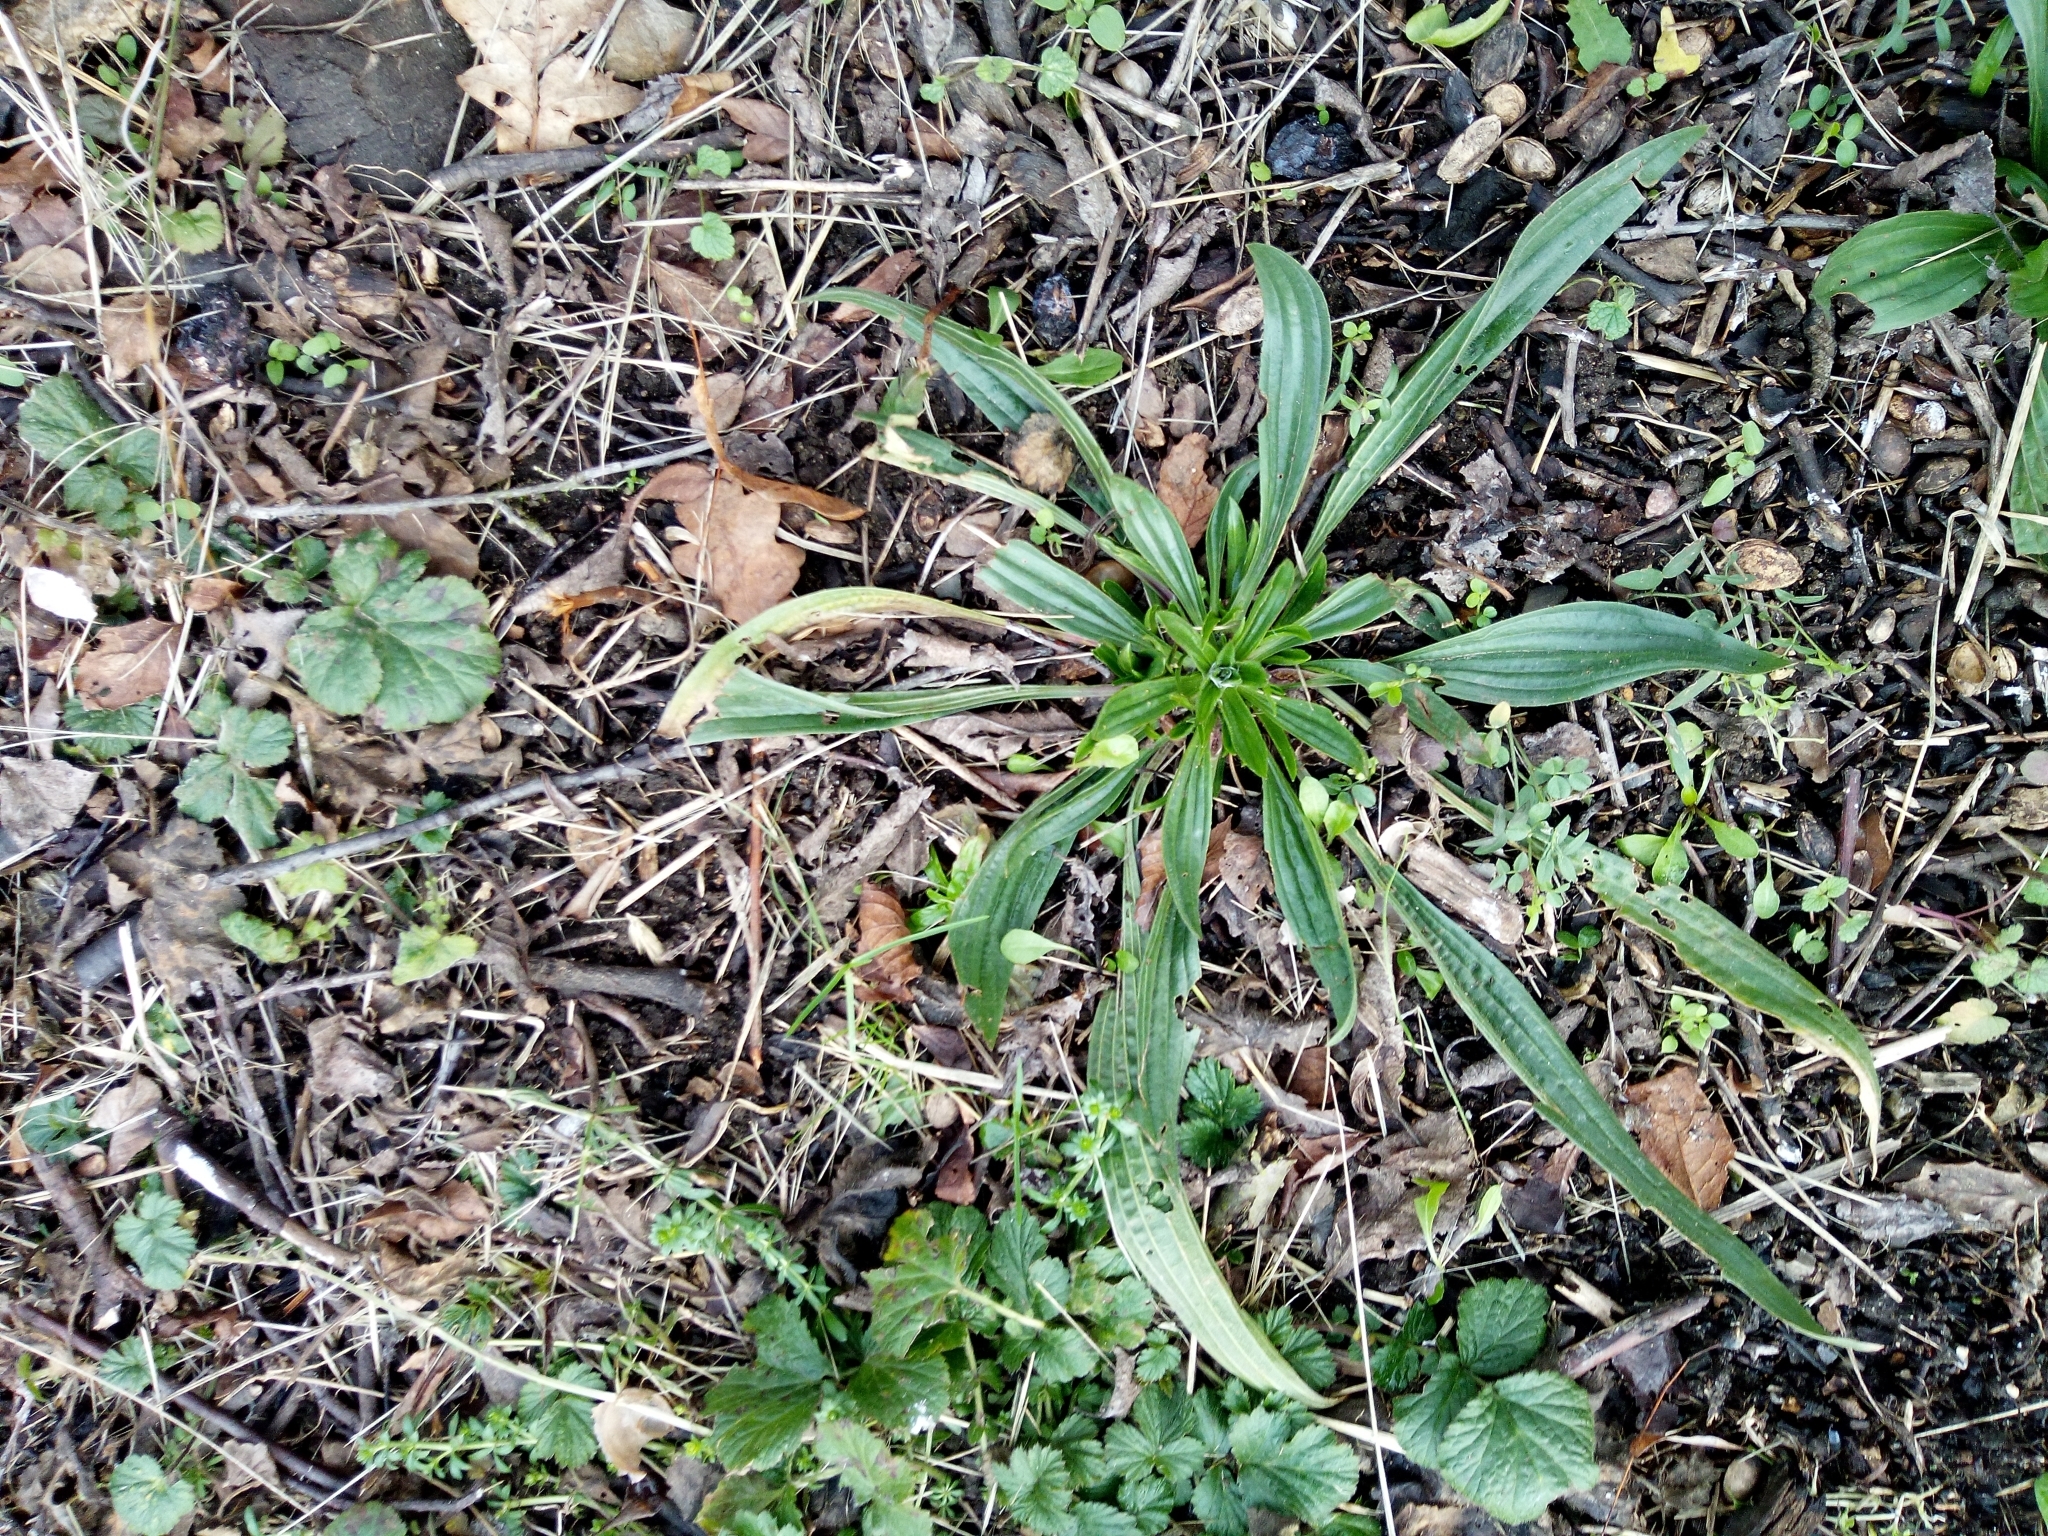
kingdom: Plantae
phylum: Tracheophyta
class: Magnoliopsida
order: Lamiales
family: Plantaginaceae
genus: Plantago
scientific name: Plantago lanceolata
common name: Ribwort plantain
